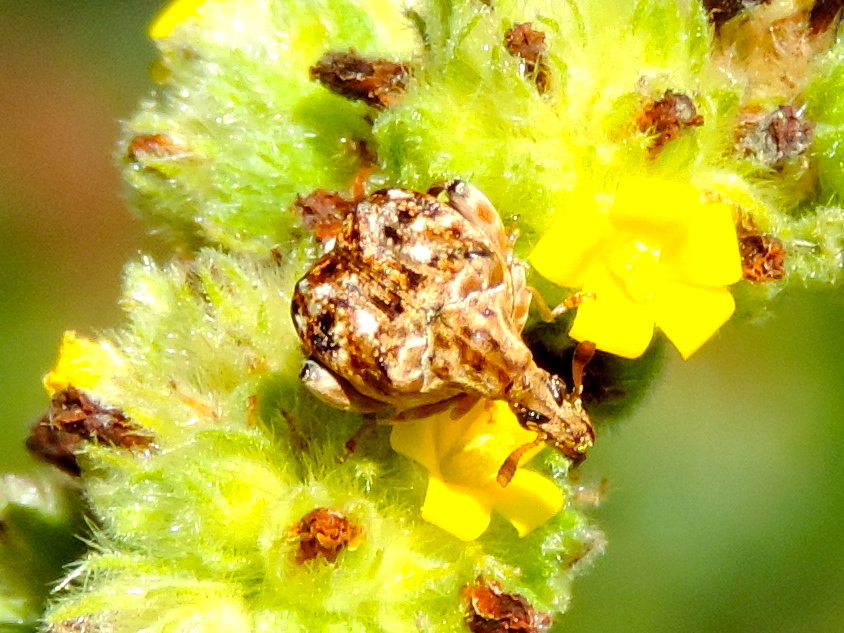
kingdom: Animalia
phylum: Arthropoda
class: Insecta
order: Coleoptera
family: Chrysomelidae
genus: Merobruchus
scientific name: Merobruchus major
